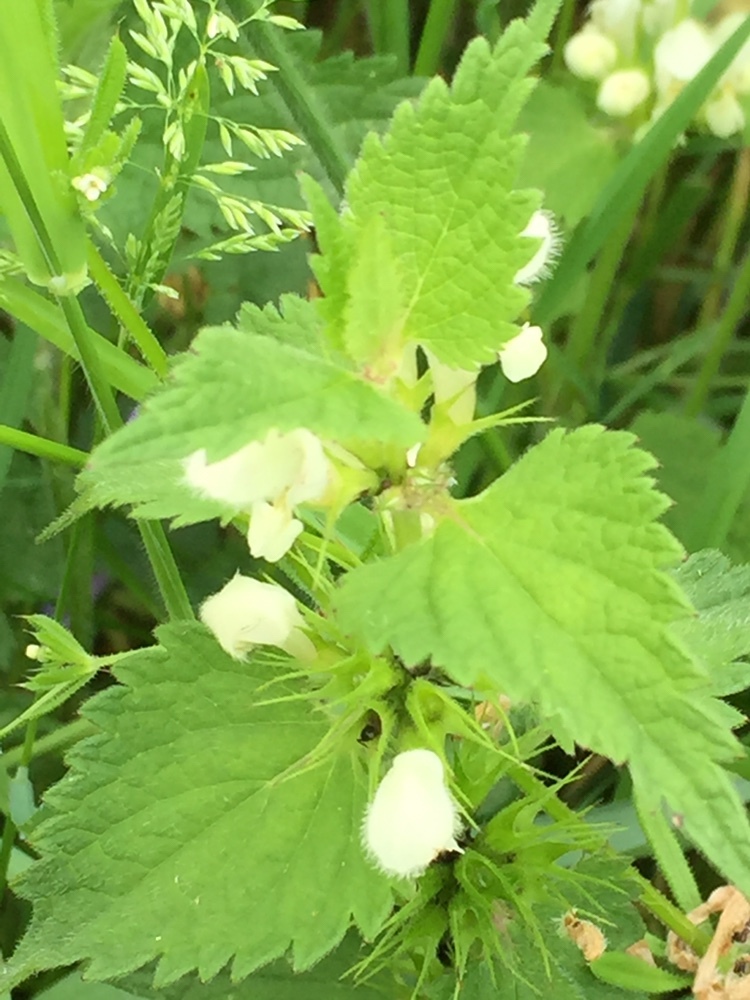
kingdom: Plantae
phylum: Tracheophyta
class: Magnoliopsida
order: Lamiales
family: Lamiaceae
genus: Lamium
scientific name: Lamium album
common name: White dead-nettle
